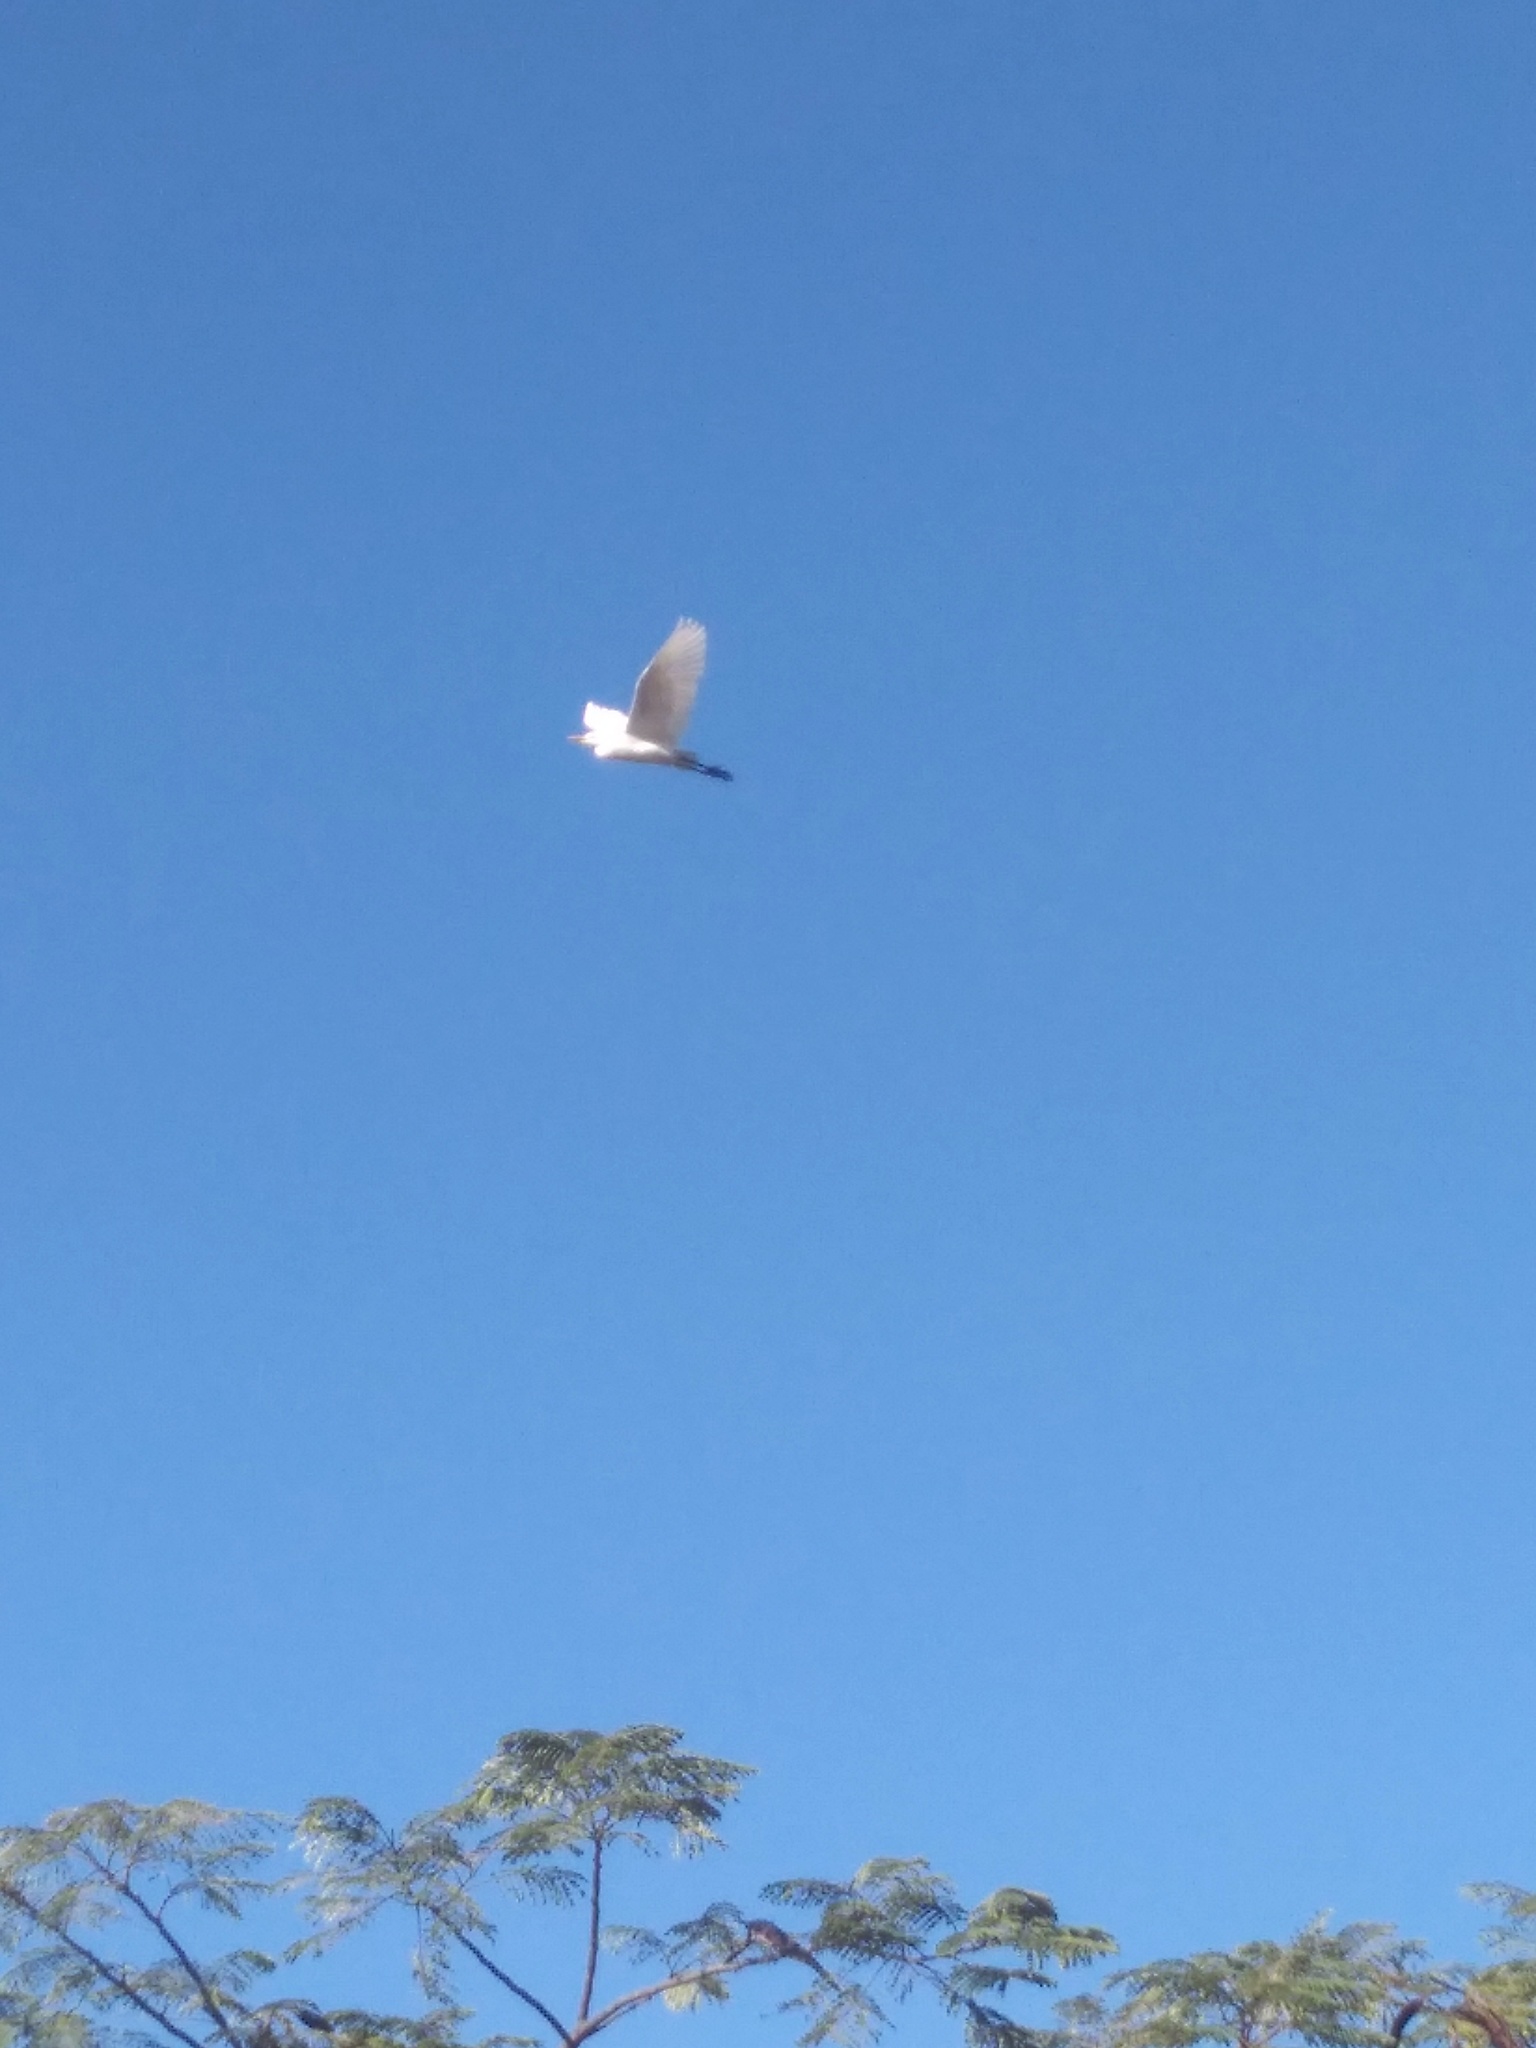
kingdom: Animalia
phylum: Chordata
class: Aves
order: Pelecaniformes
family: Ardeidae
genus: Ardea
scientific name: Ardea alba
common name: Great egret
